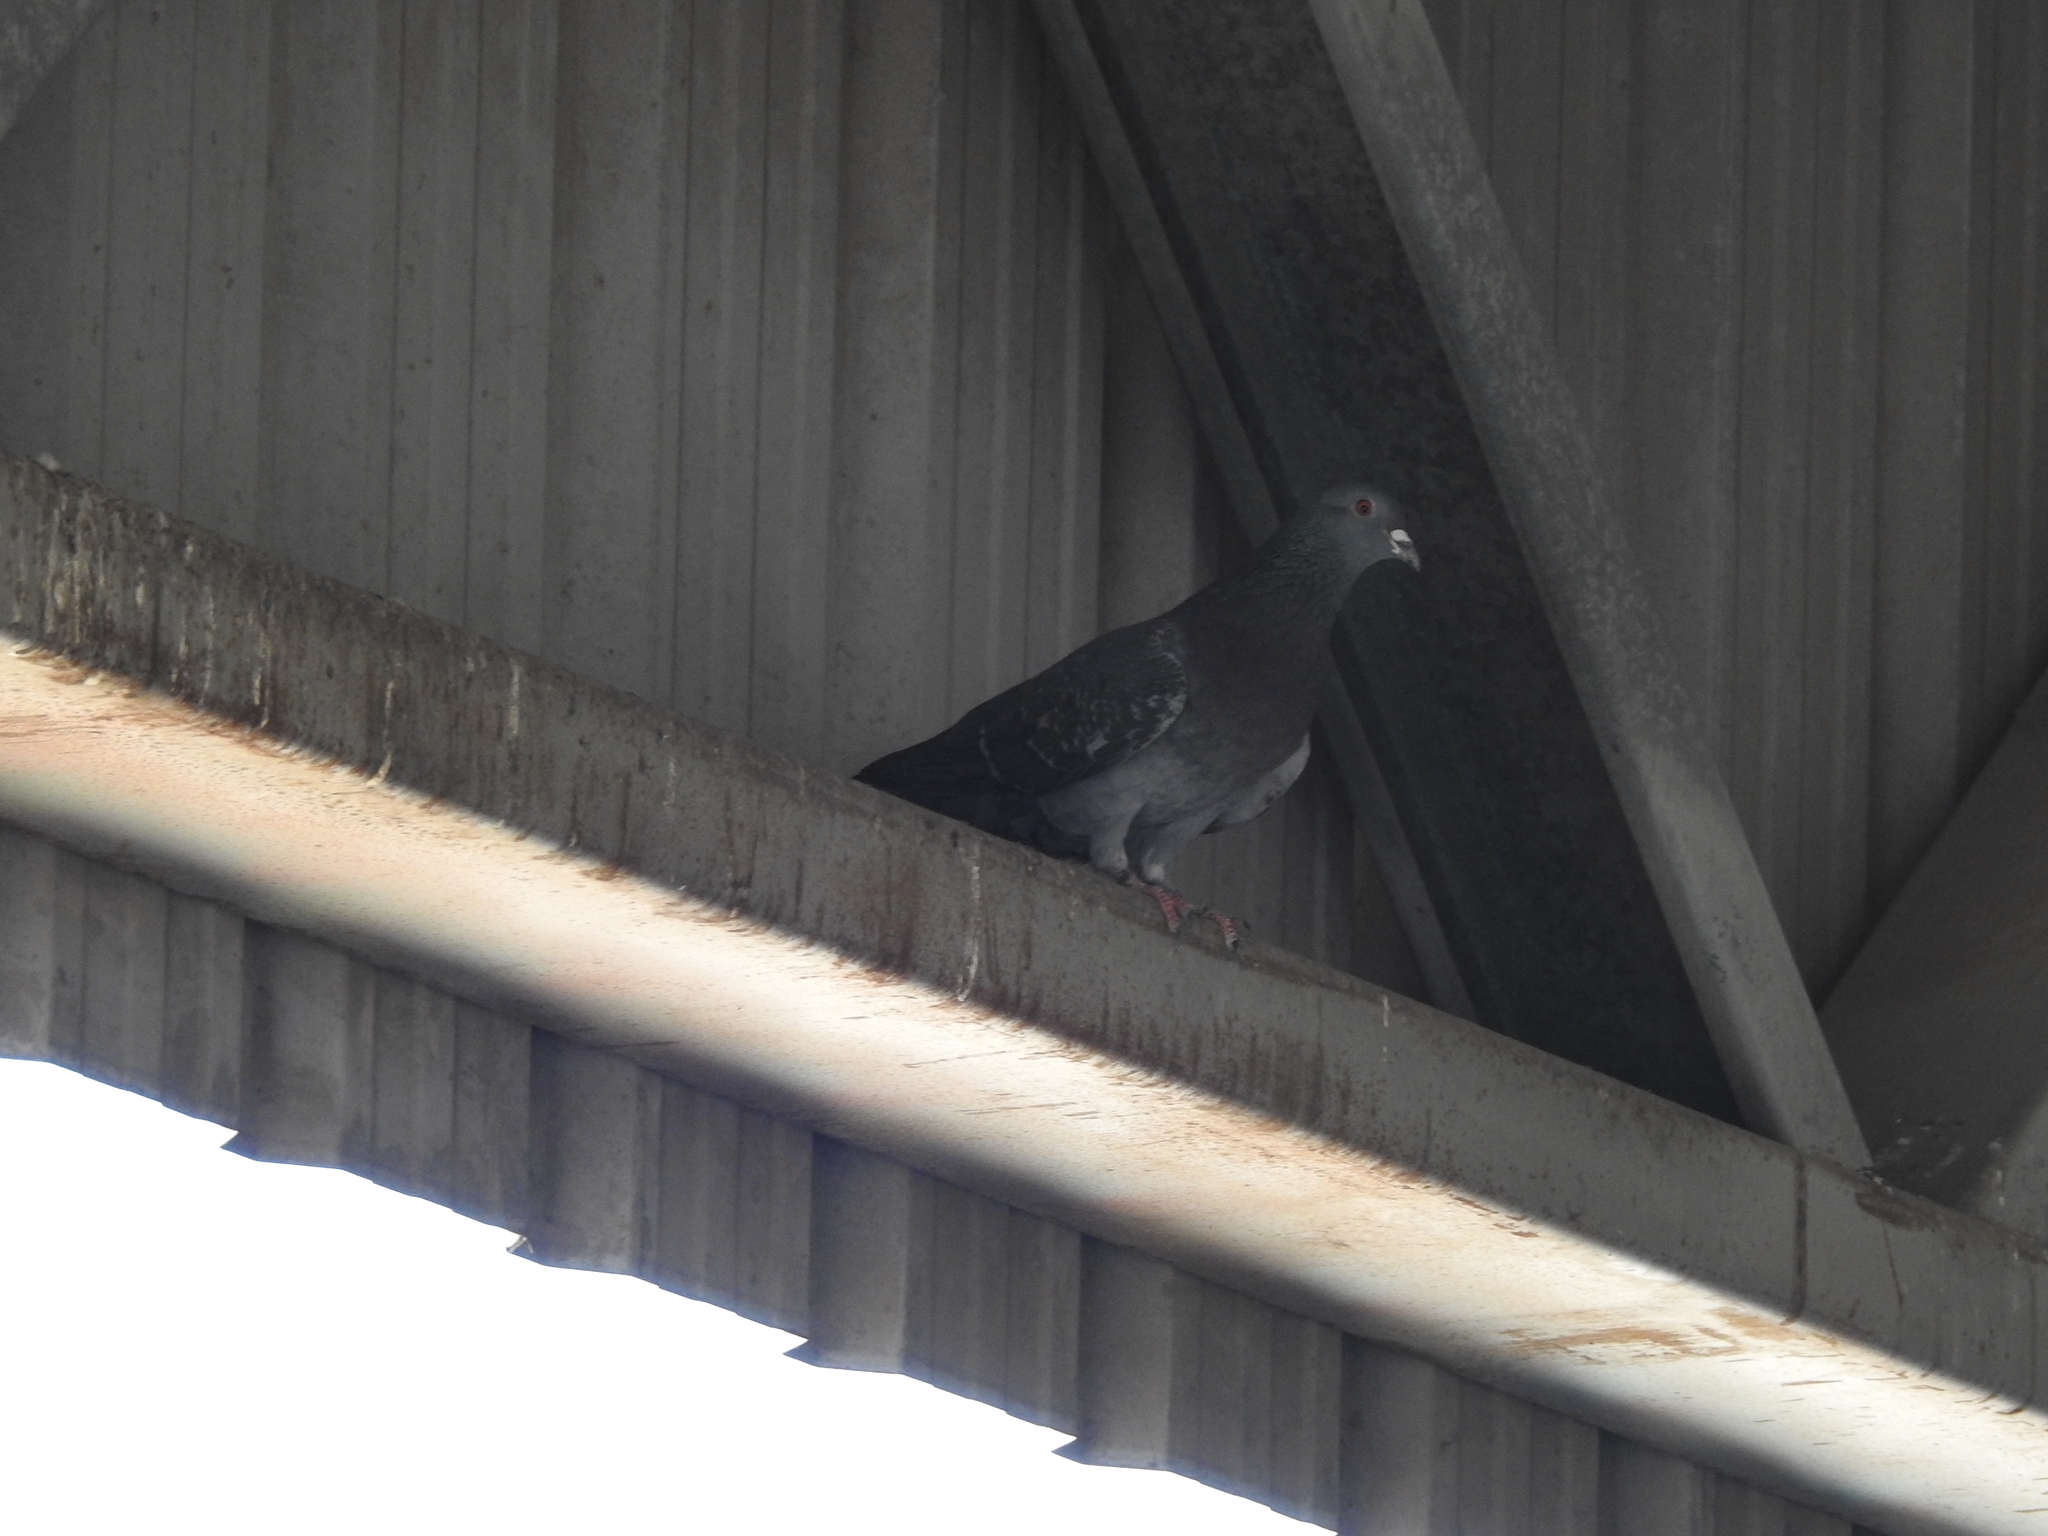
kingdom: Animalia
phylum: Chordata
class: Aves
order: Columbiformes
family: Columbidae
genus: Columba
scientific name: Columba livia
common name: Rock pigeon
